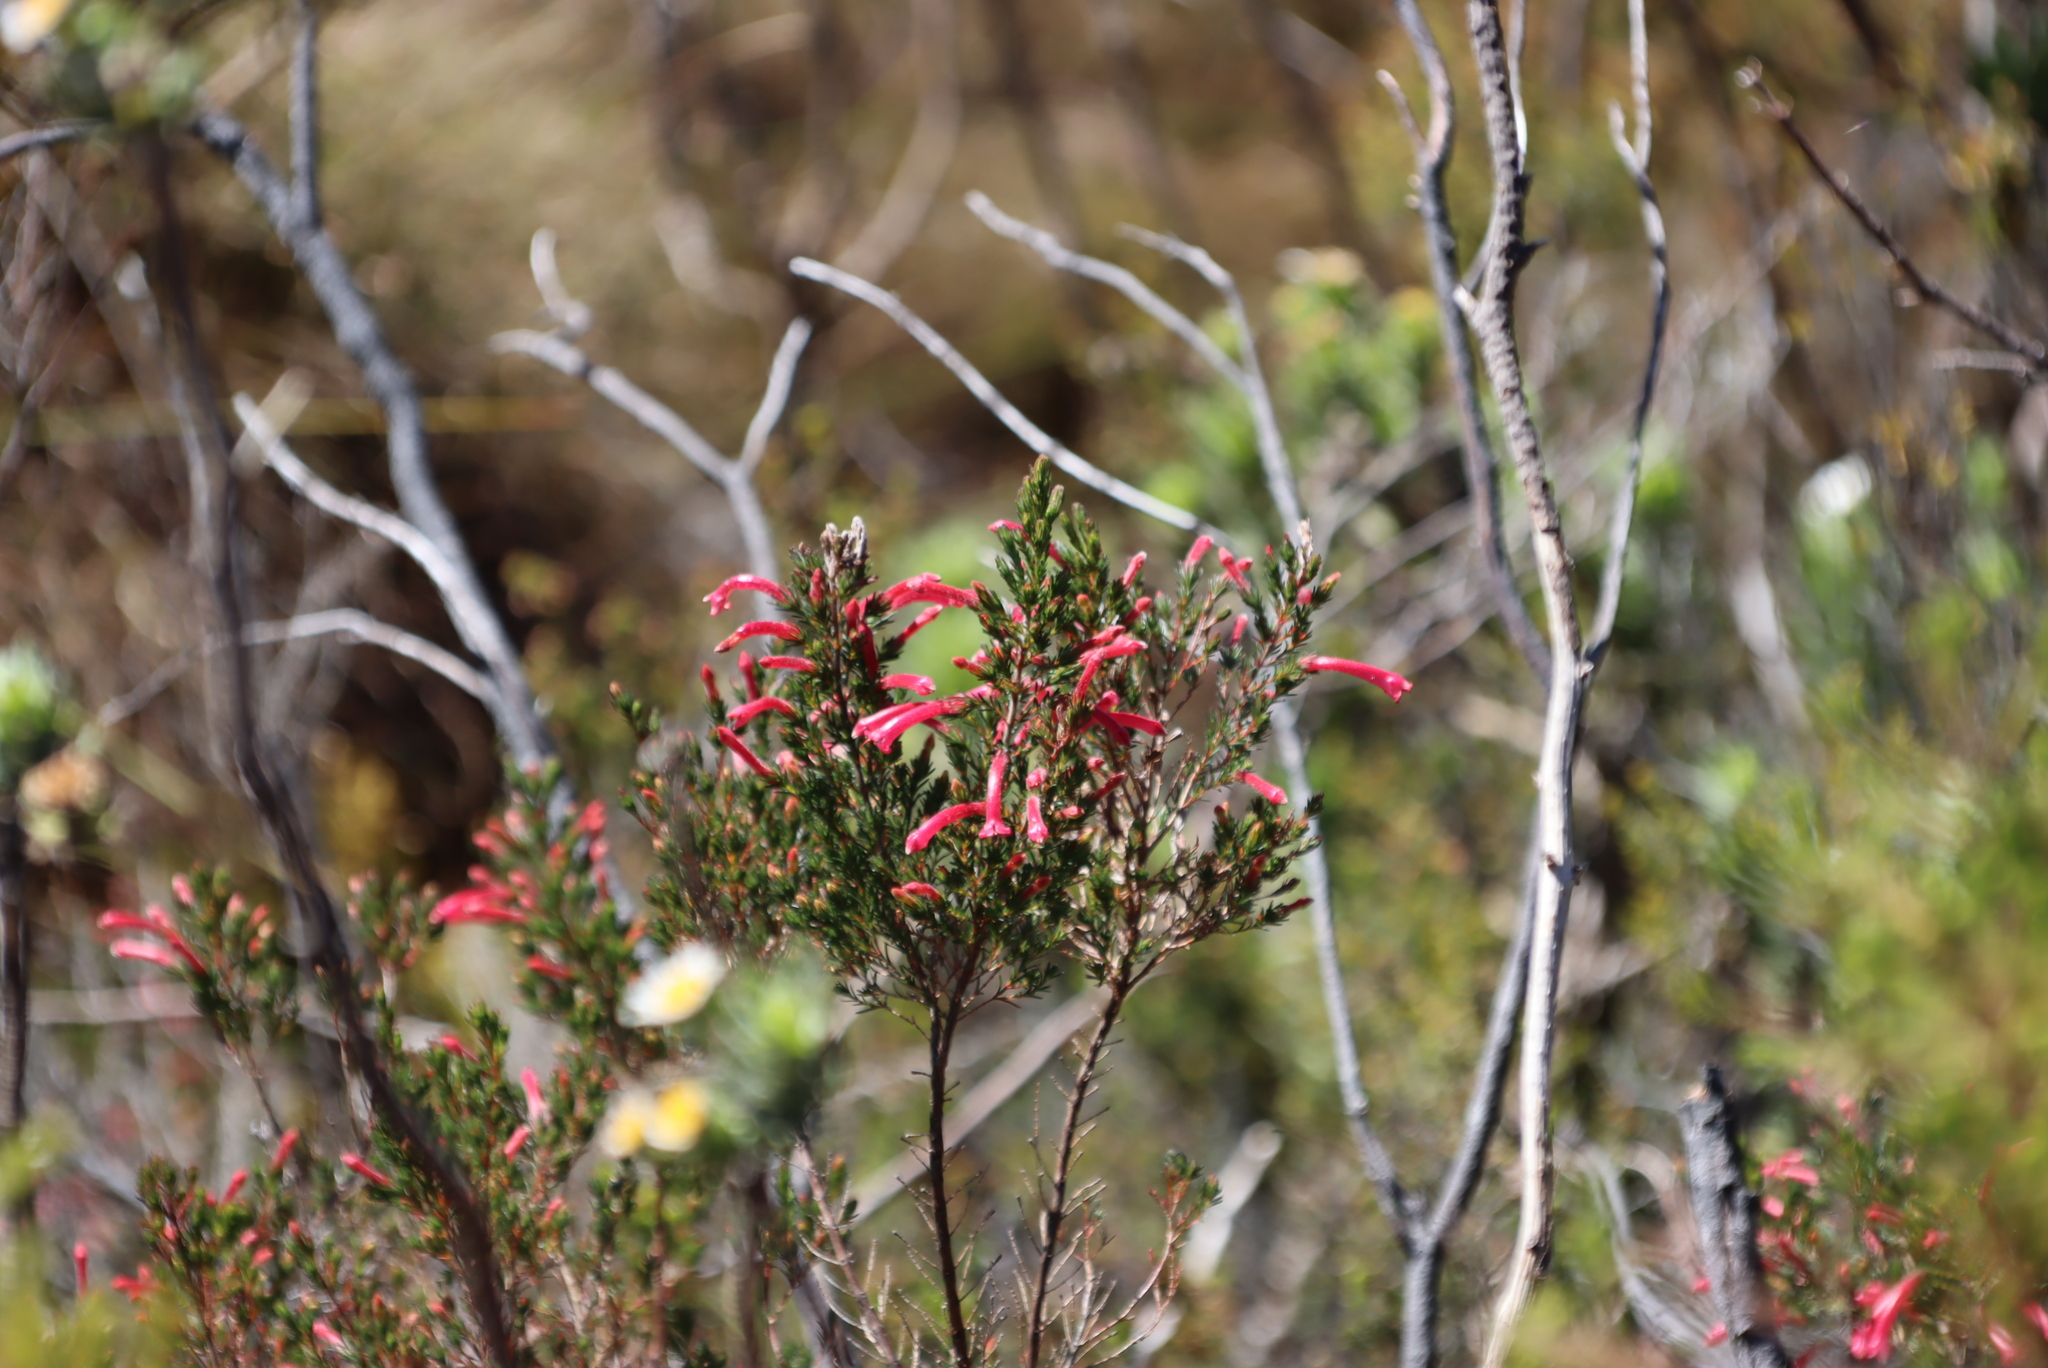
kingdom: Plantae
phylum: Tracheophyta
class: Magnoliopsida
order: Ericales
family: Ericaceae
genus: Erica
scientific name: Erica curviflora
